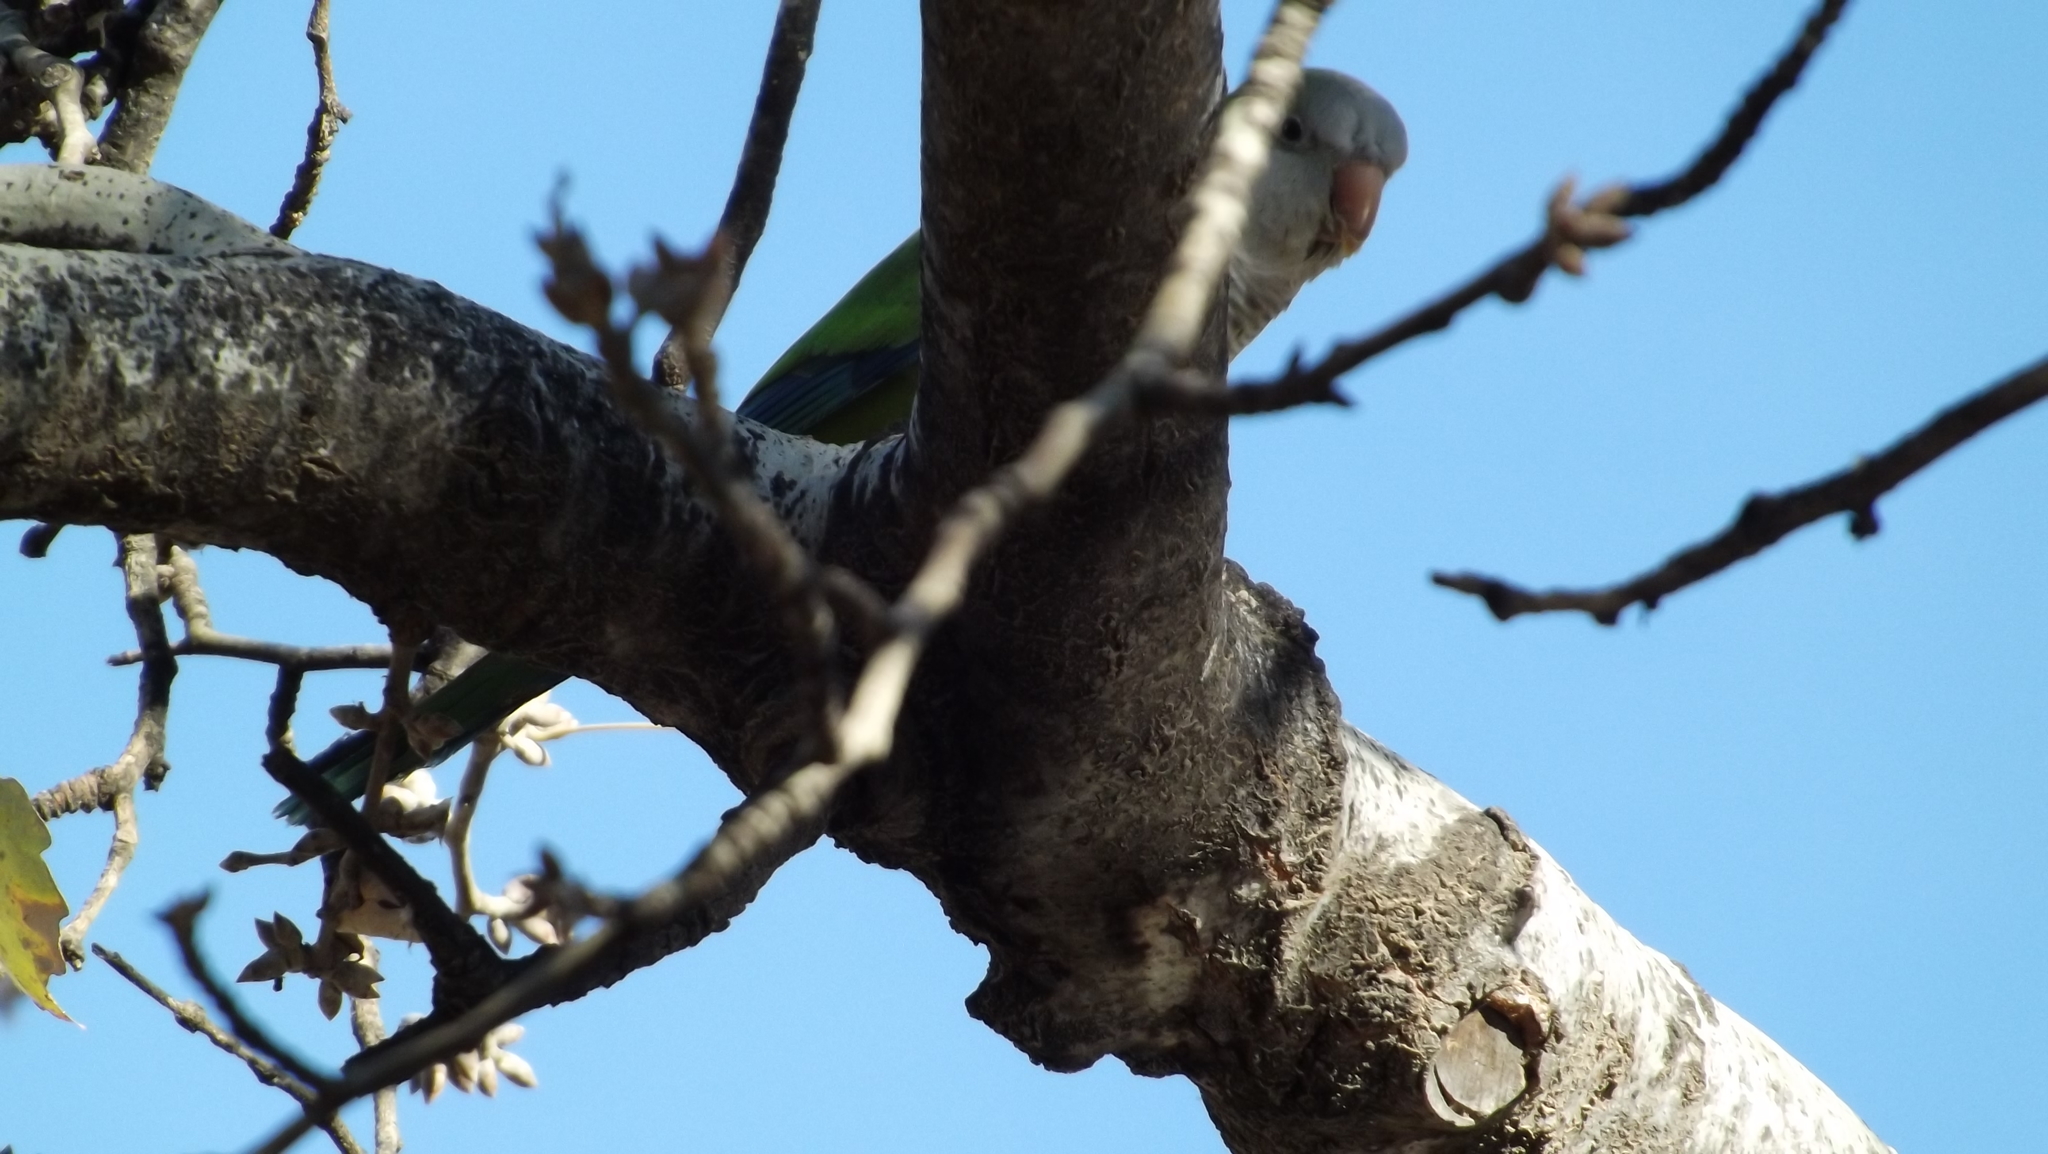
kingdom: Animalia
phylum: Chordata
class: Aves
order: Psittaciformes
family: Psittacidae
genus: Myiopsitta
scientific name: Myiopsitta monachus
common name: Monk parakeet
